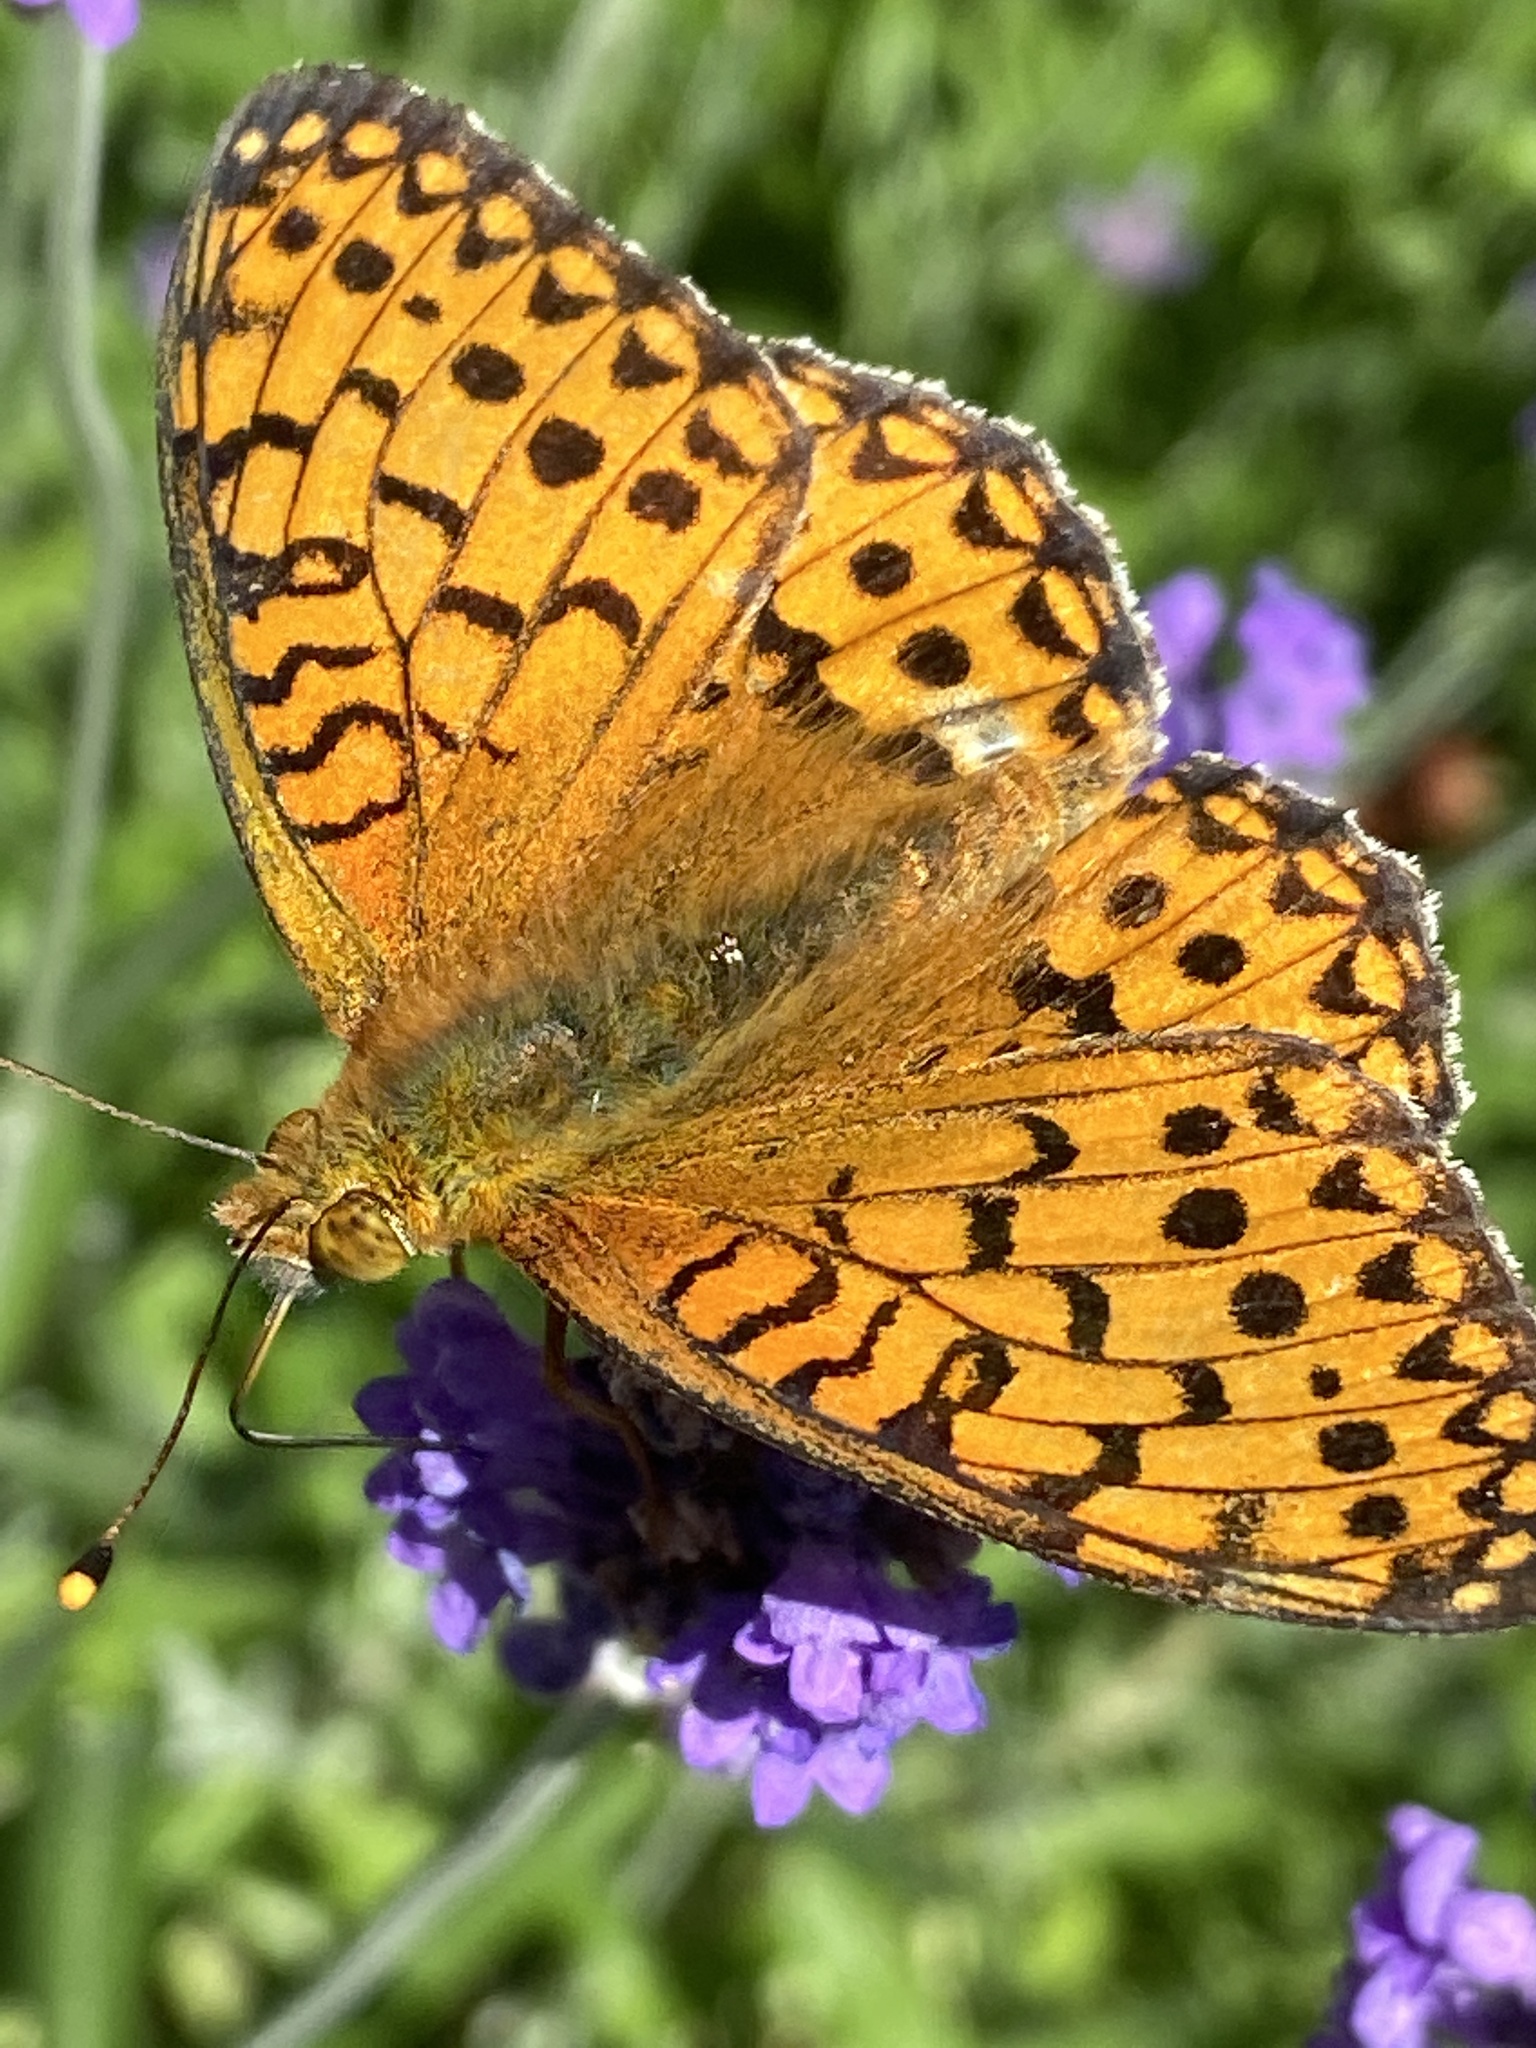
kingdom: Animalia
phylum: Arthropoda
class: Insecta
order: Lepidoptera
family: Nymphalidae
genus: Speyeria
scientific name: Speyeria aglaja
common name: Dark green fritillary
